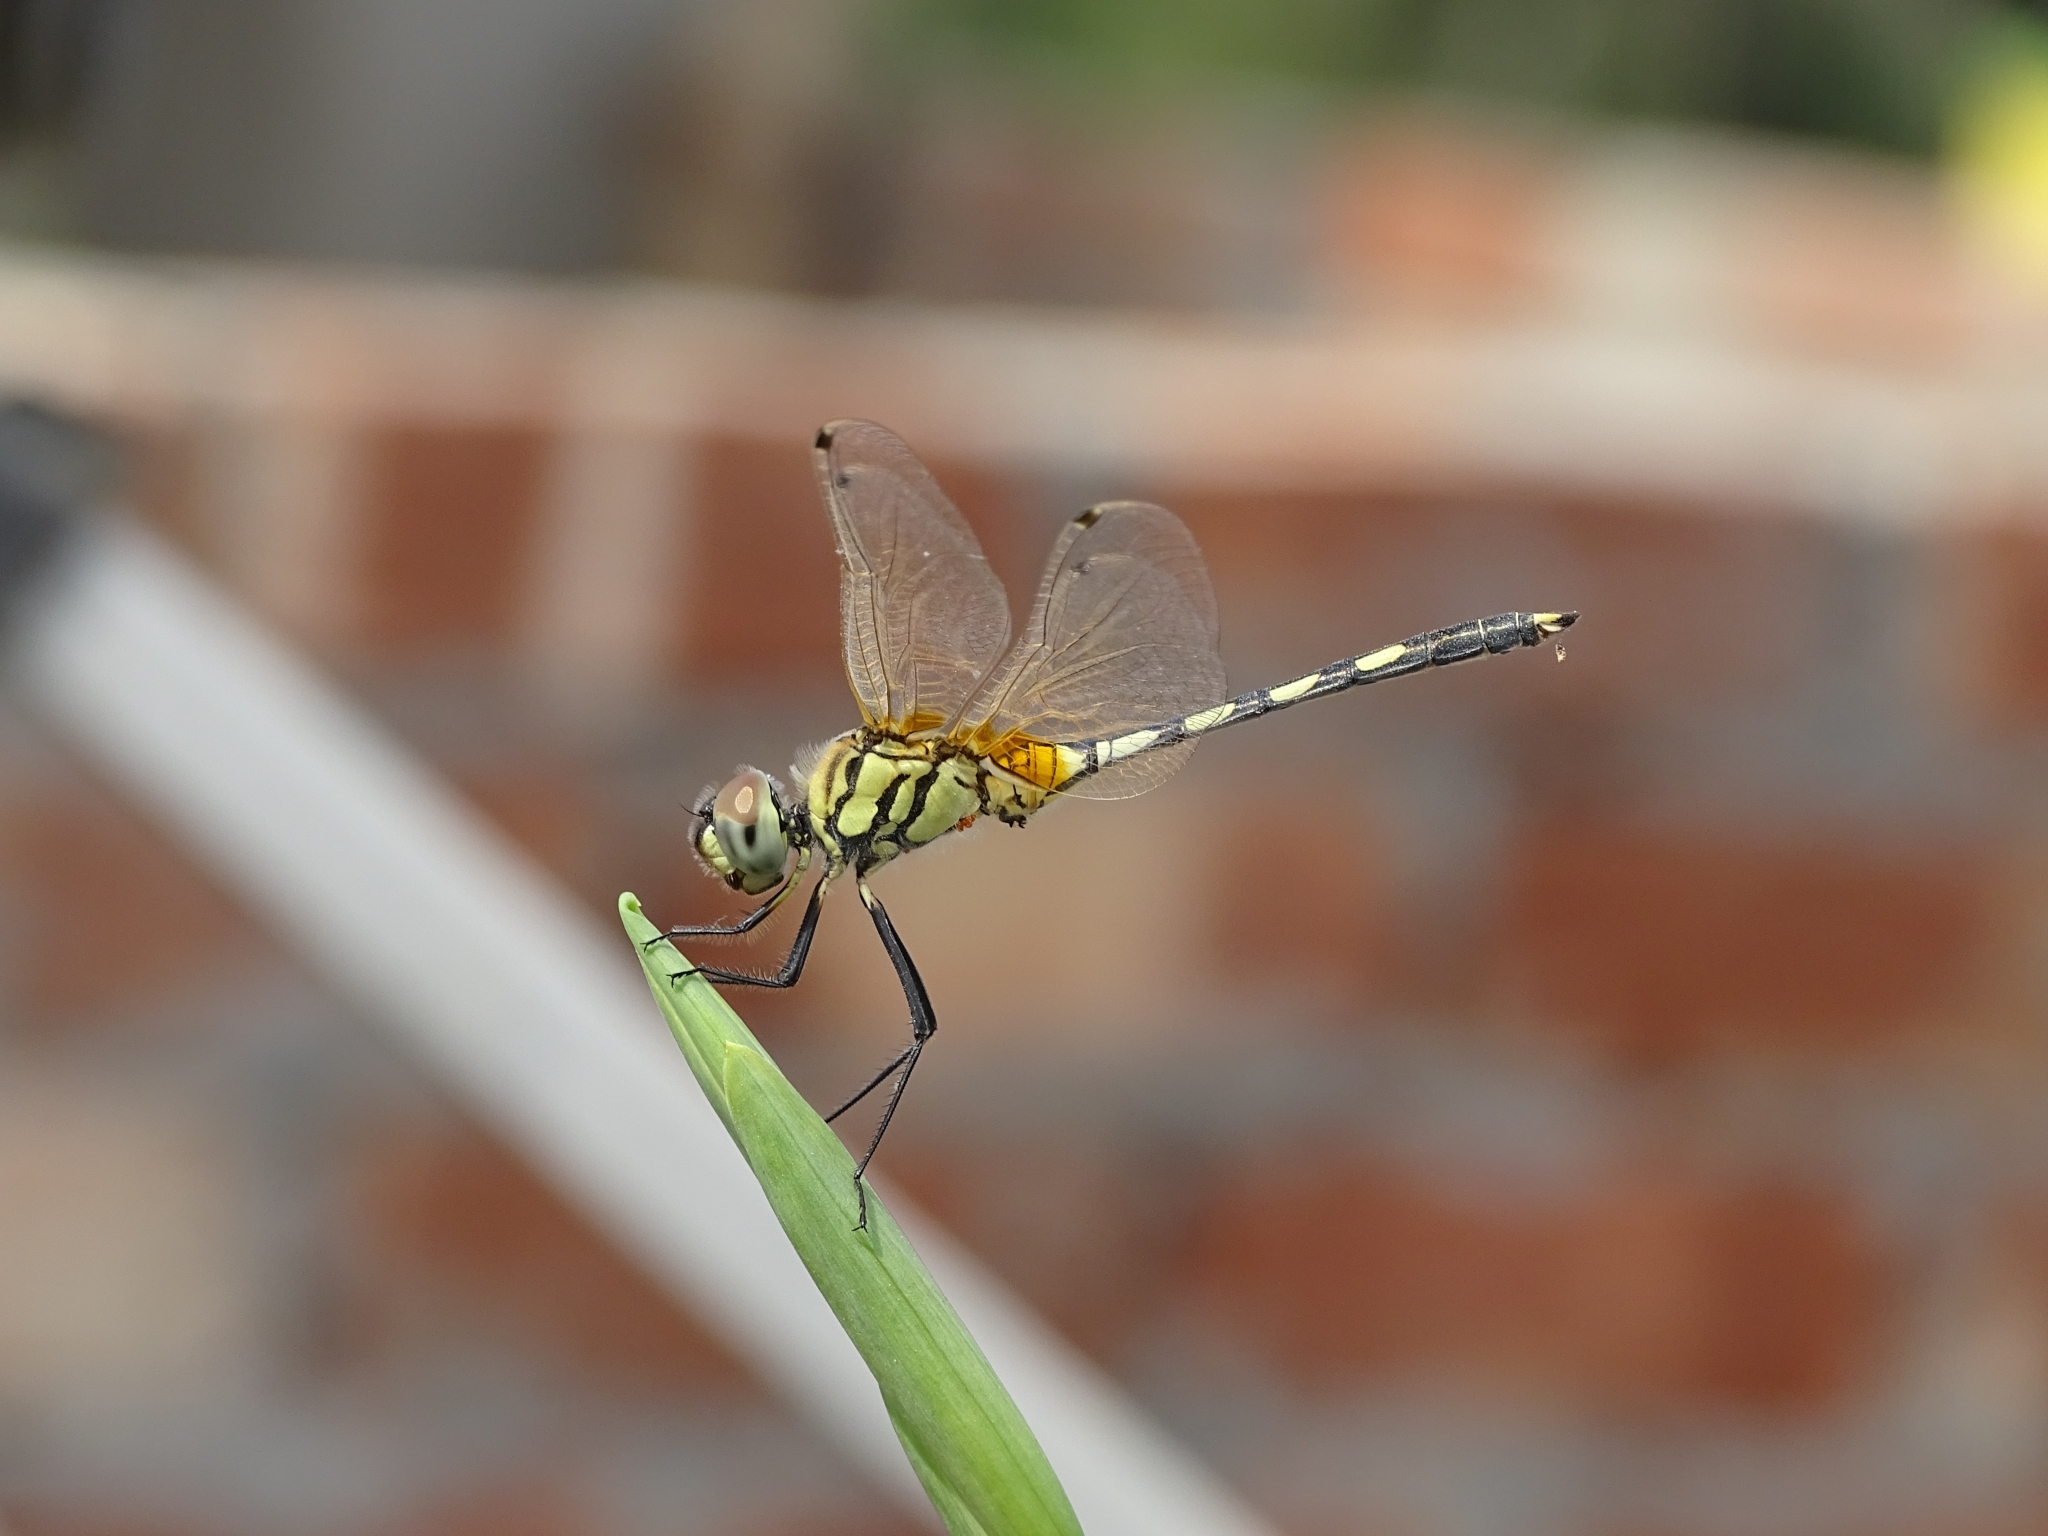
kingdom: Animalia
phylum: Arthropoda
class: Insecta
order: Odonata
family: Libellulidae
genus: Trithemis
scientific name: Trithemis pallidinervis
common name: Dancing dropwing
